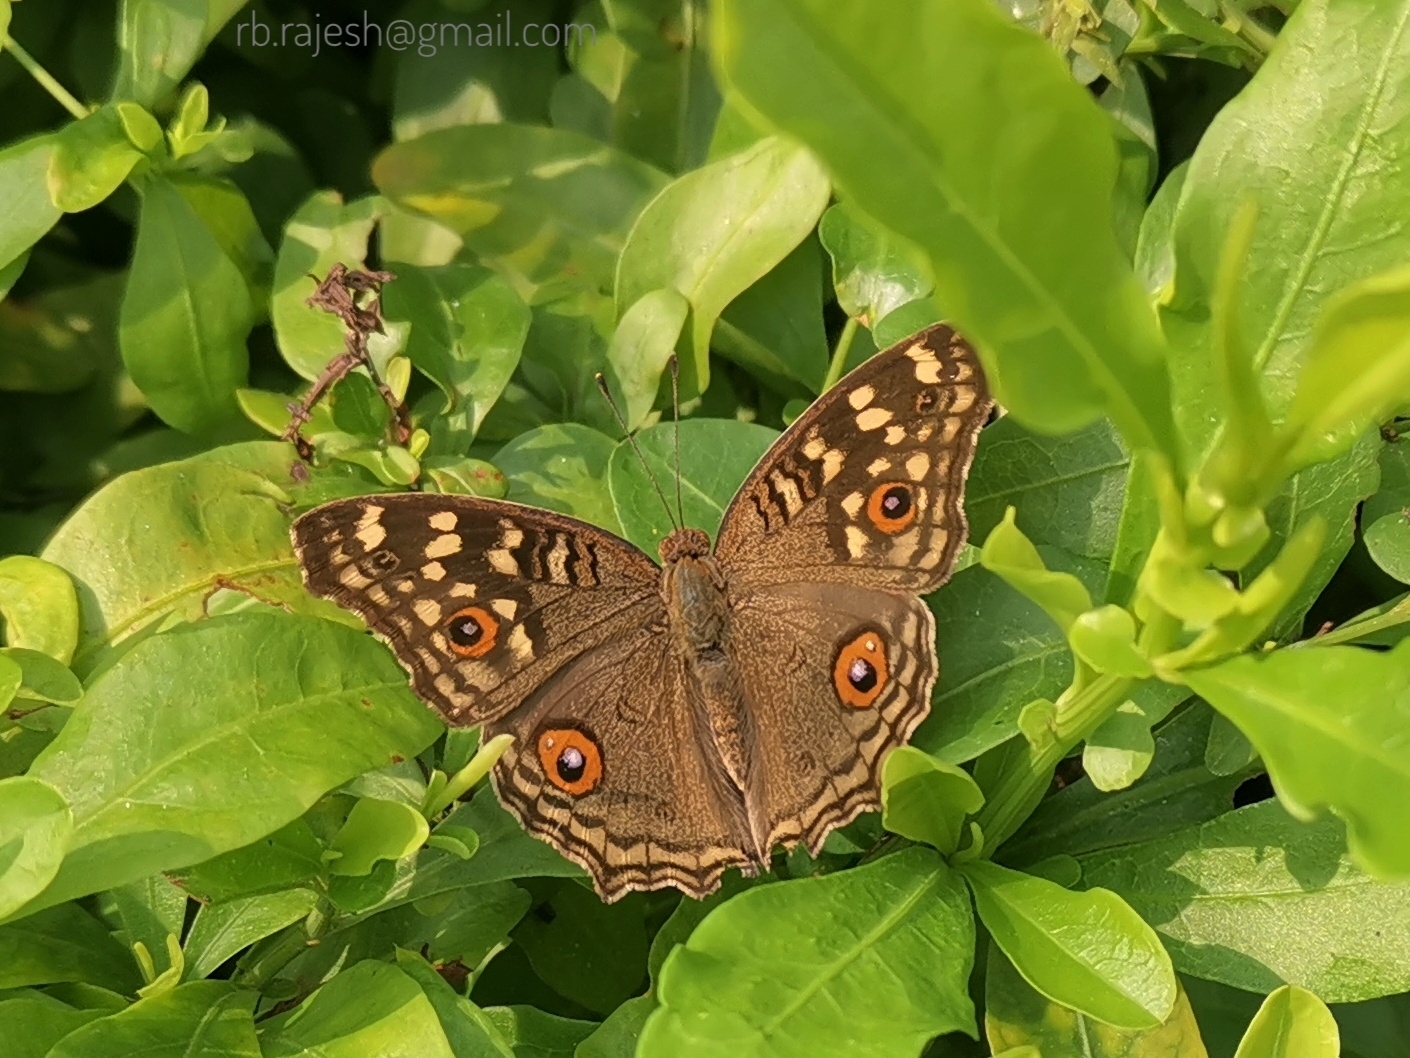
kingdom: Animalia
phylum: Arthropoda
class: Insecta
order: Lepidoptera
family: Nymphalidae
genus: Junonia
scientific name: Junonia lemonias
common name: Lemon pansy
